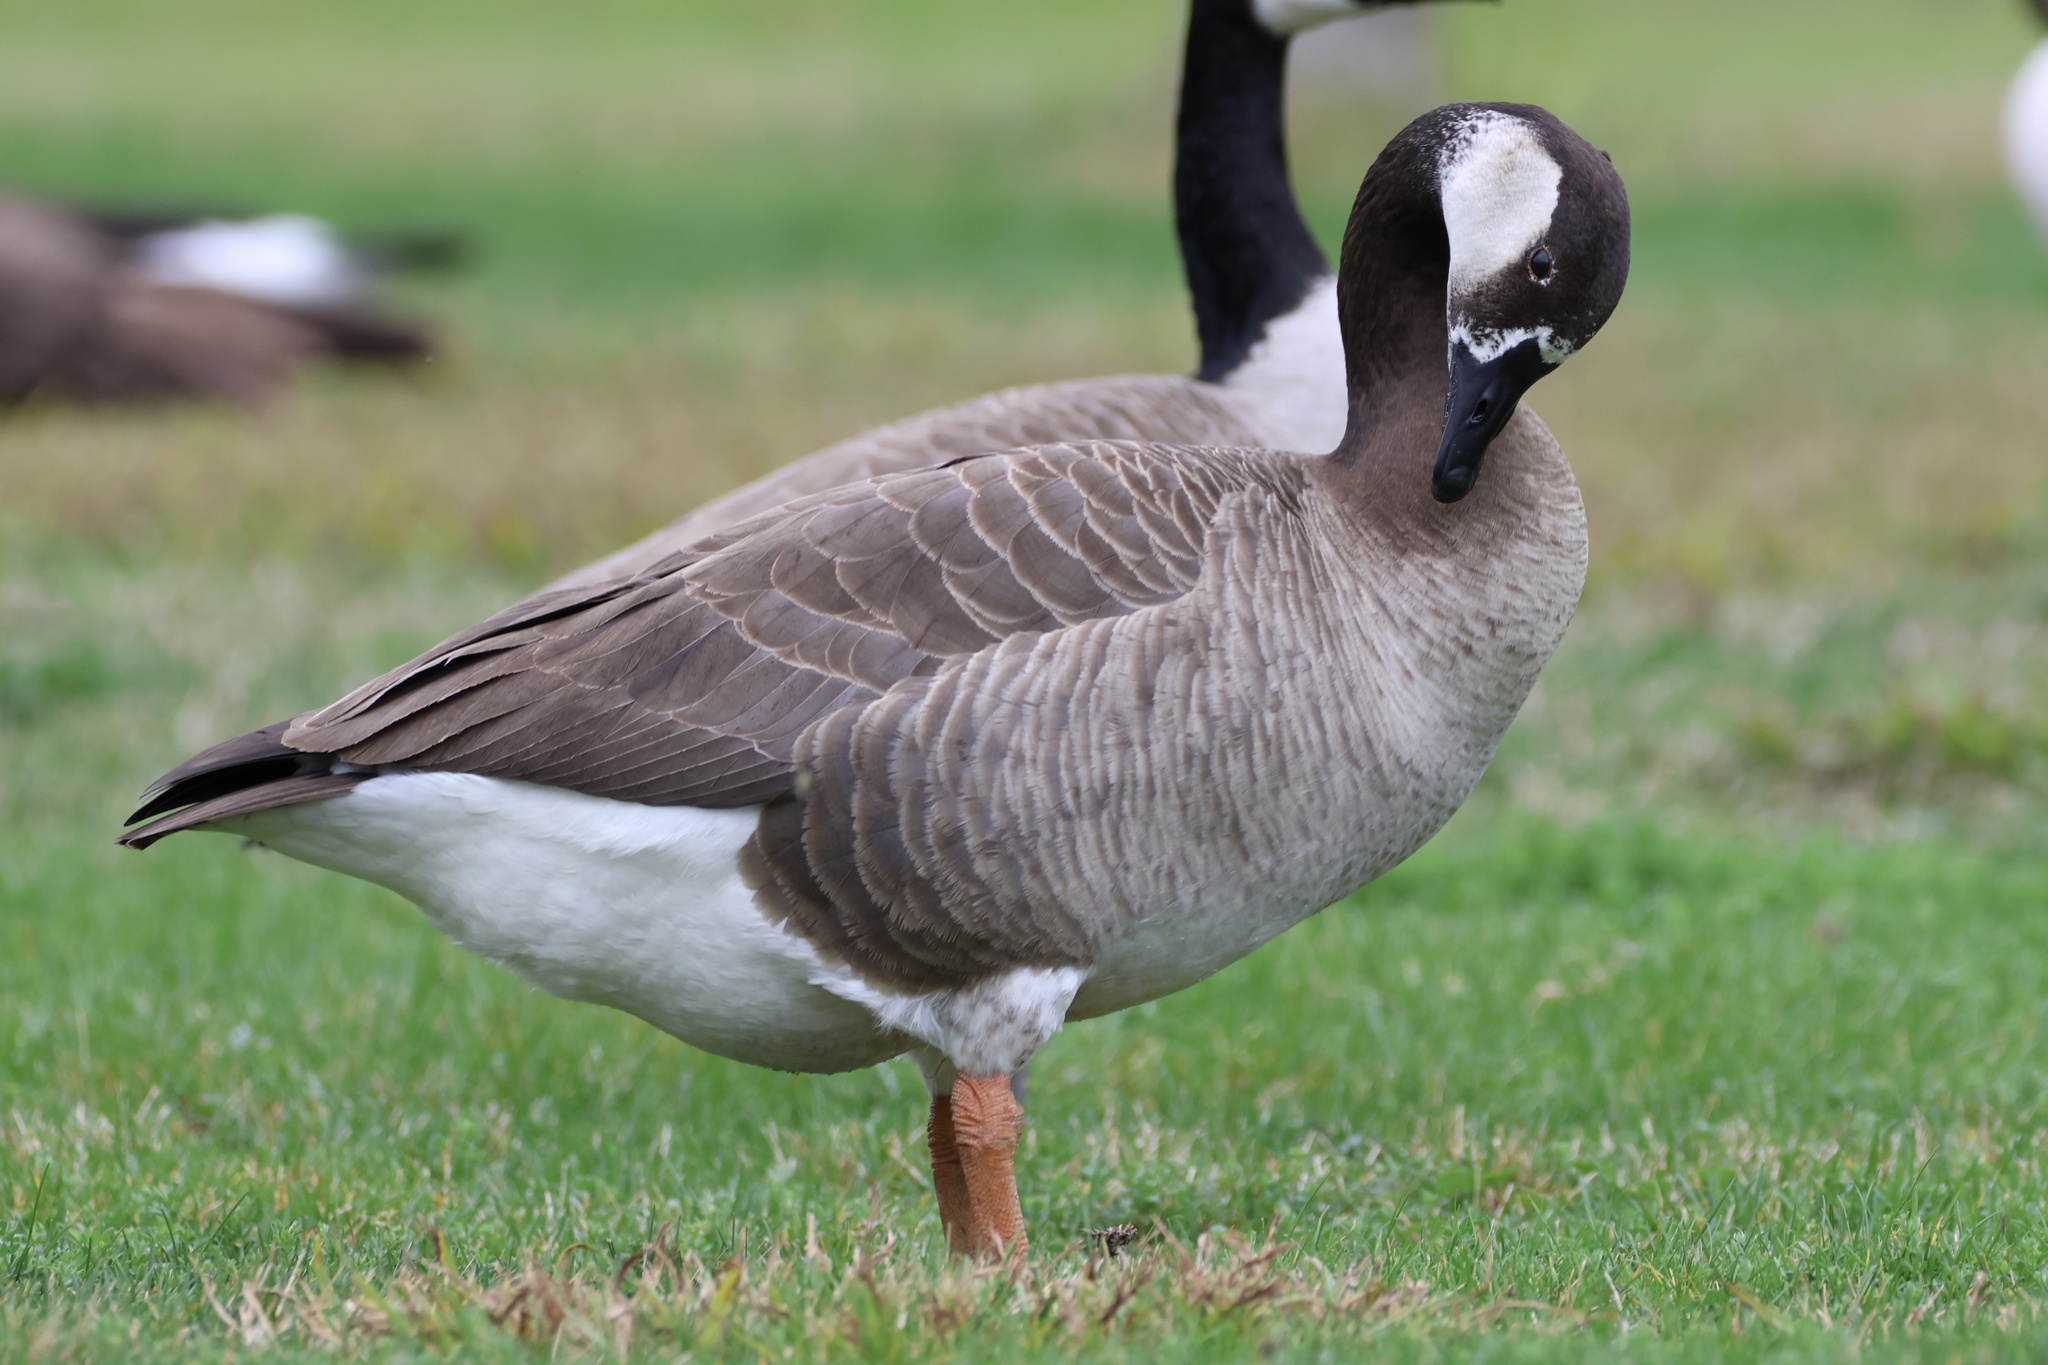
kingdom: Animalia
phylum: Chordata
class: Aves
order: Anseriformes
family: Anatidae
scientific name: Anatidae
